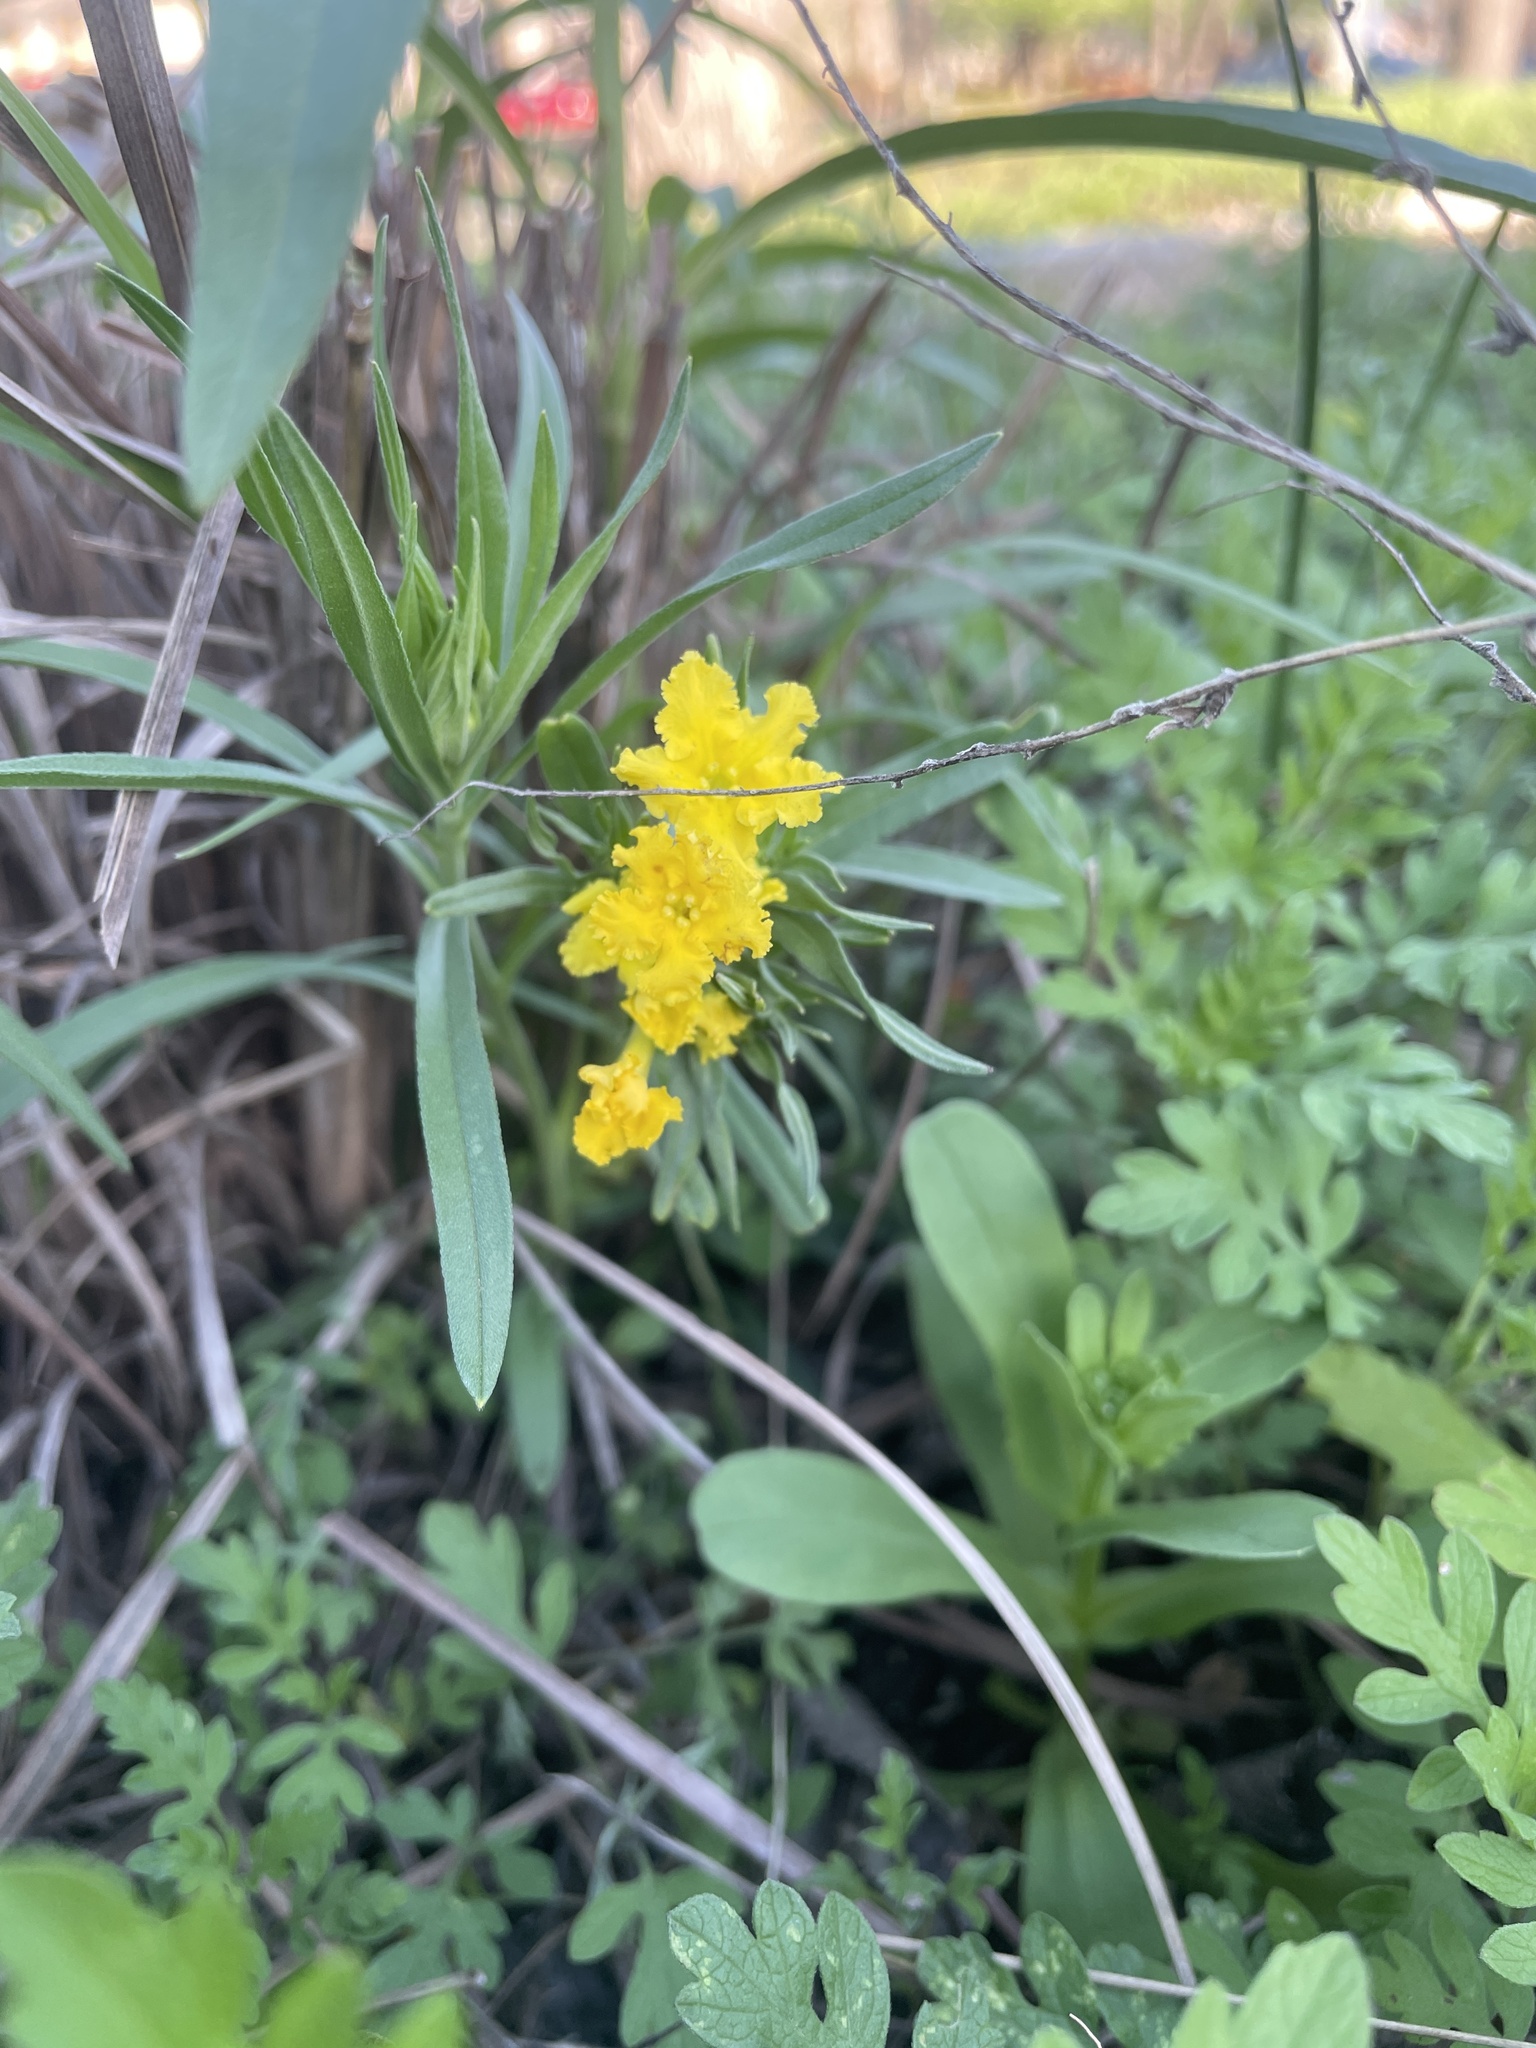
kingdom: Plantae
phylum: Tracheophyta
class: Magnoliopsida
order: Boraginales
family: Boraginaceae
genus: Lithospermum
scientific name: Lithospermum incisum
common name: Fringed gromwell
